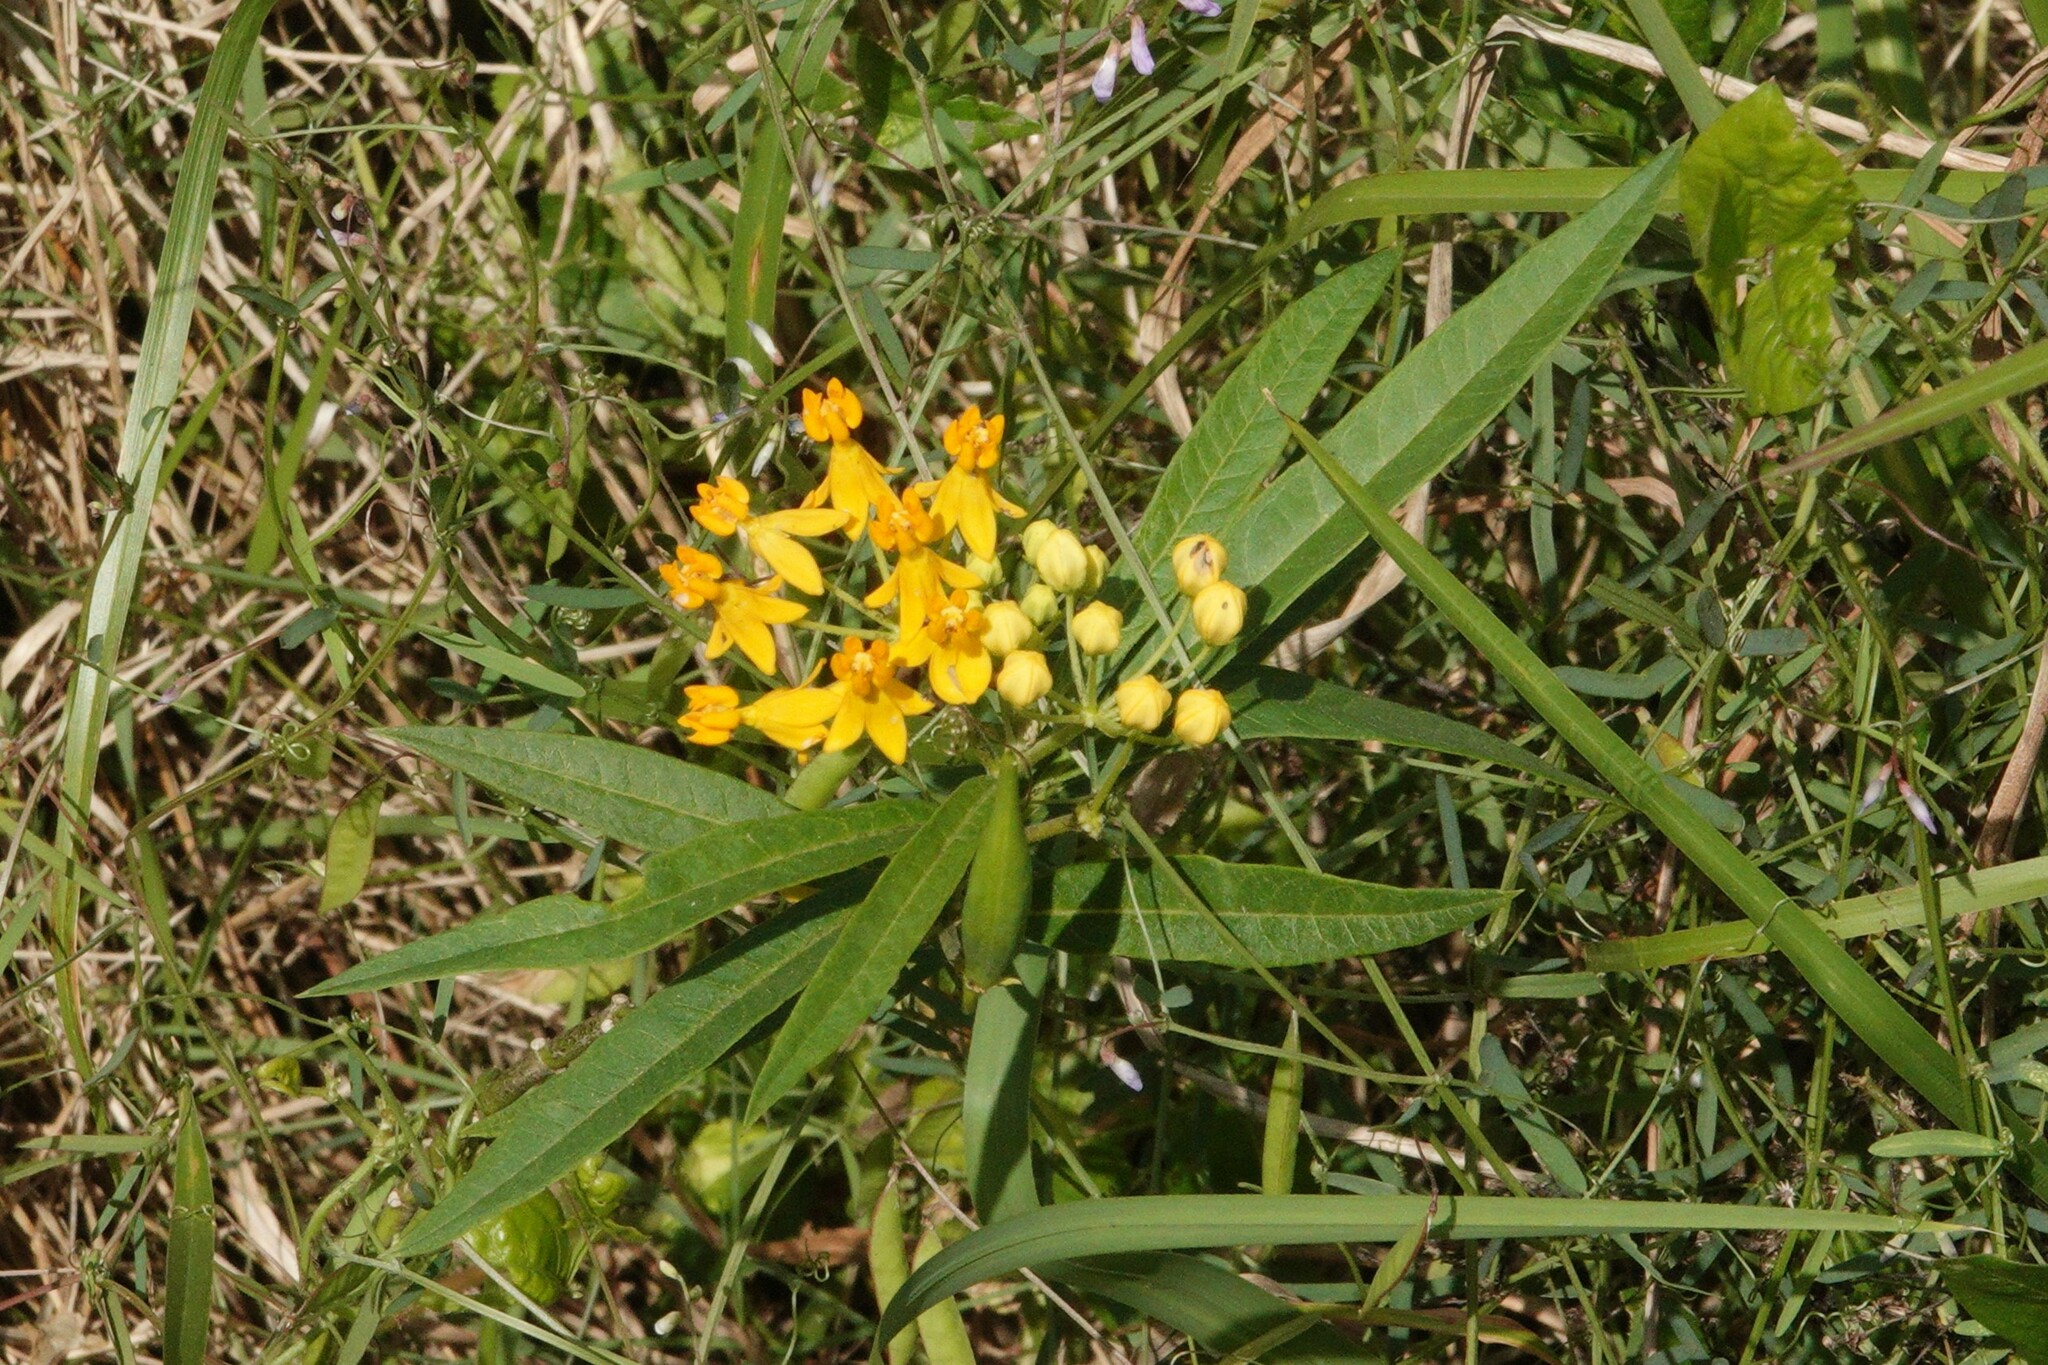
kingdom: Plantae
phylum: Tracheophyta
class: Magnoliopsida
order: Gentianales
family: Apocynaceae
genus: Asclepias
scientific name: Asclepias curassavica
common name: Bloodflower
